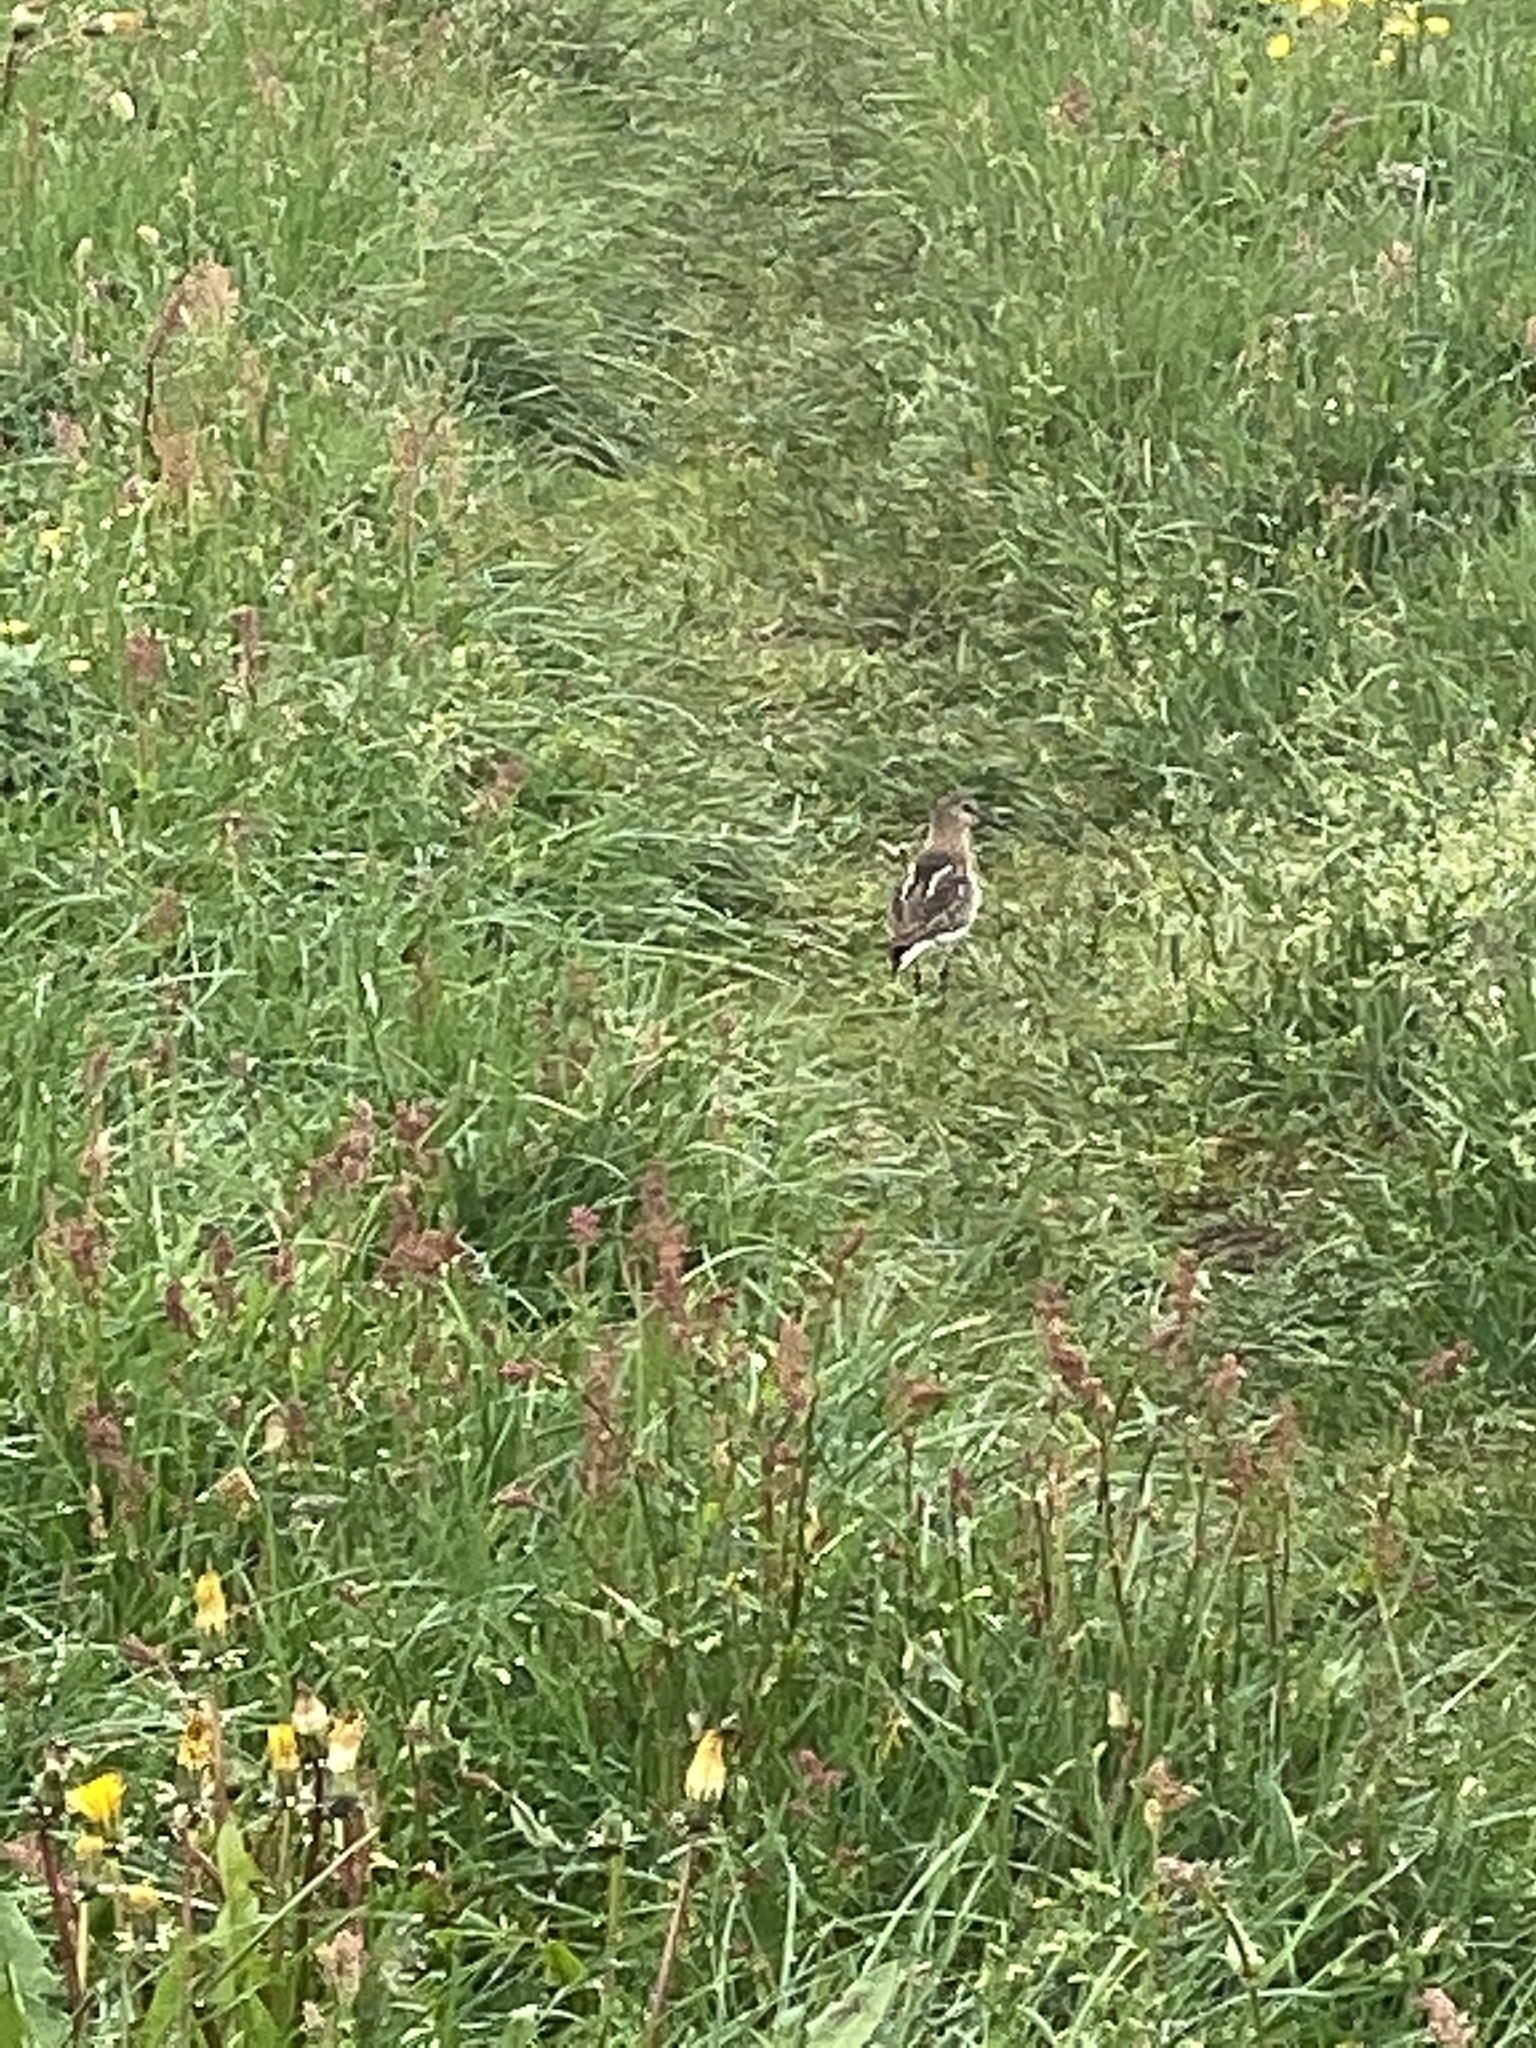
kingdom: Animalia
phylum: Chordata
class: Aves
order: Charadriiformes
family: Scolopacidae
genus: Calidris
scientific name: Calidris alpina
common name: Dunlin
